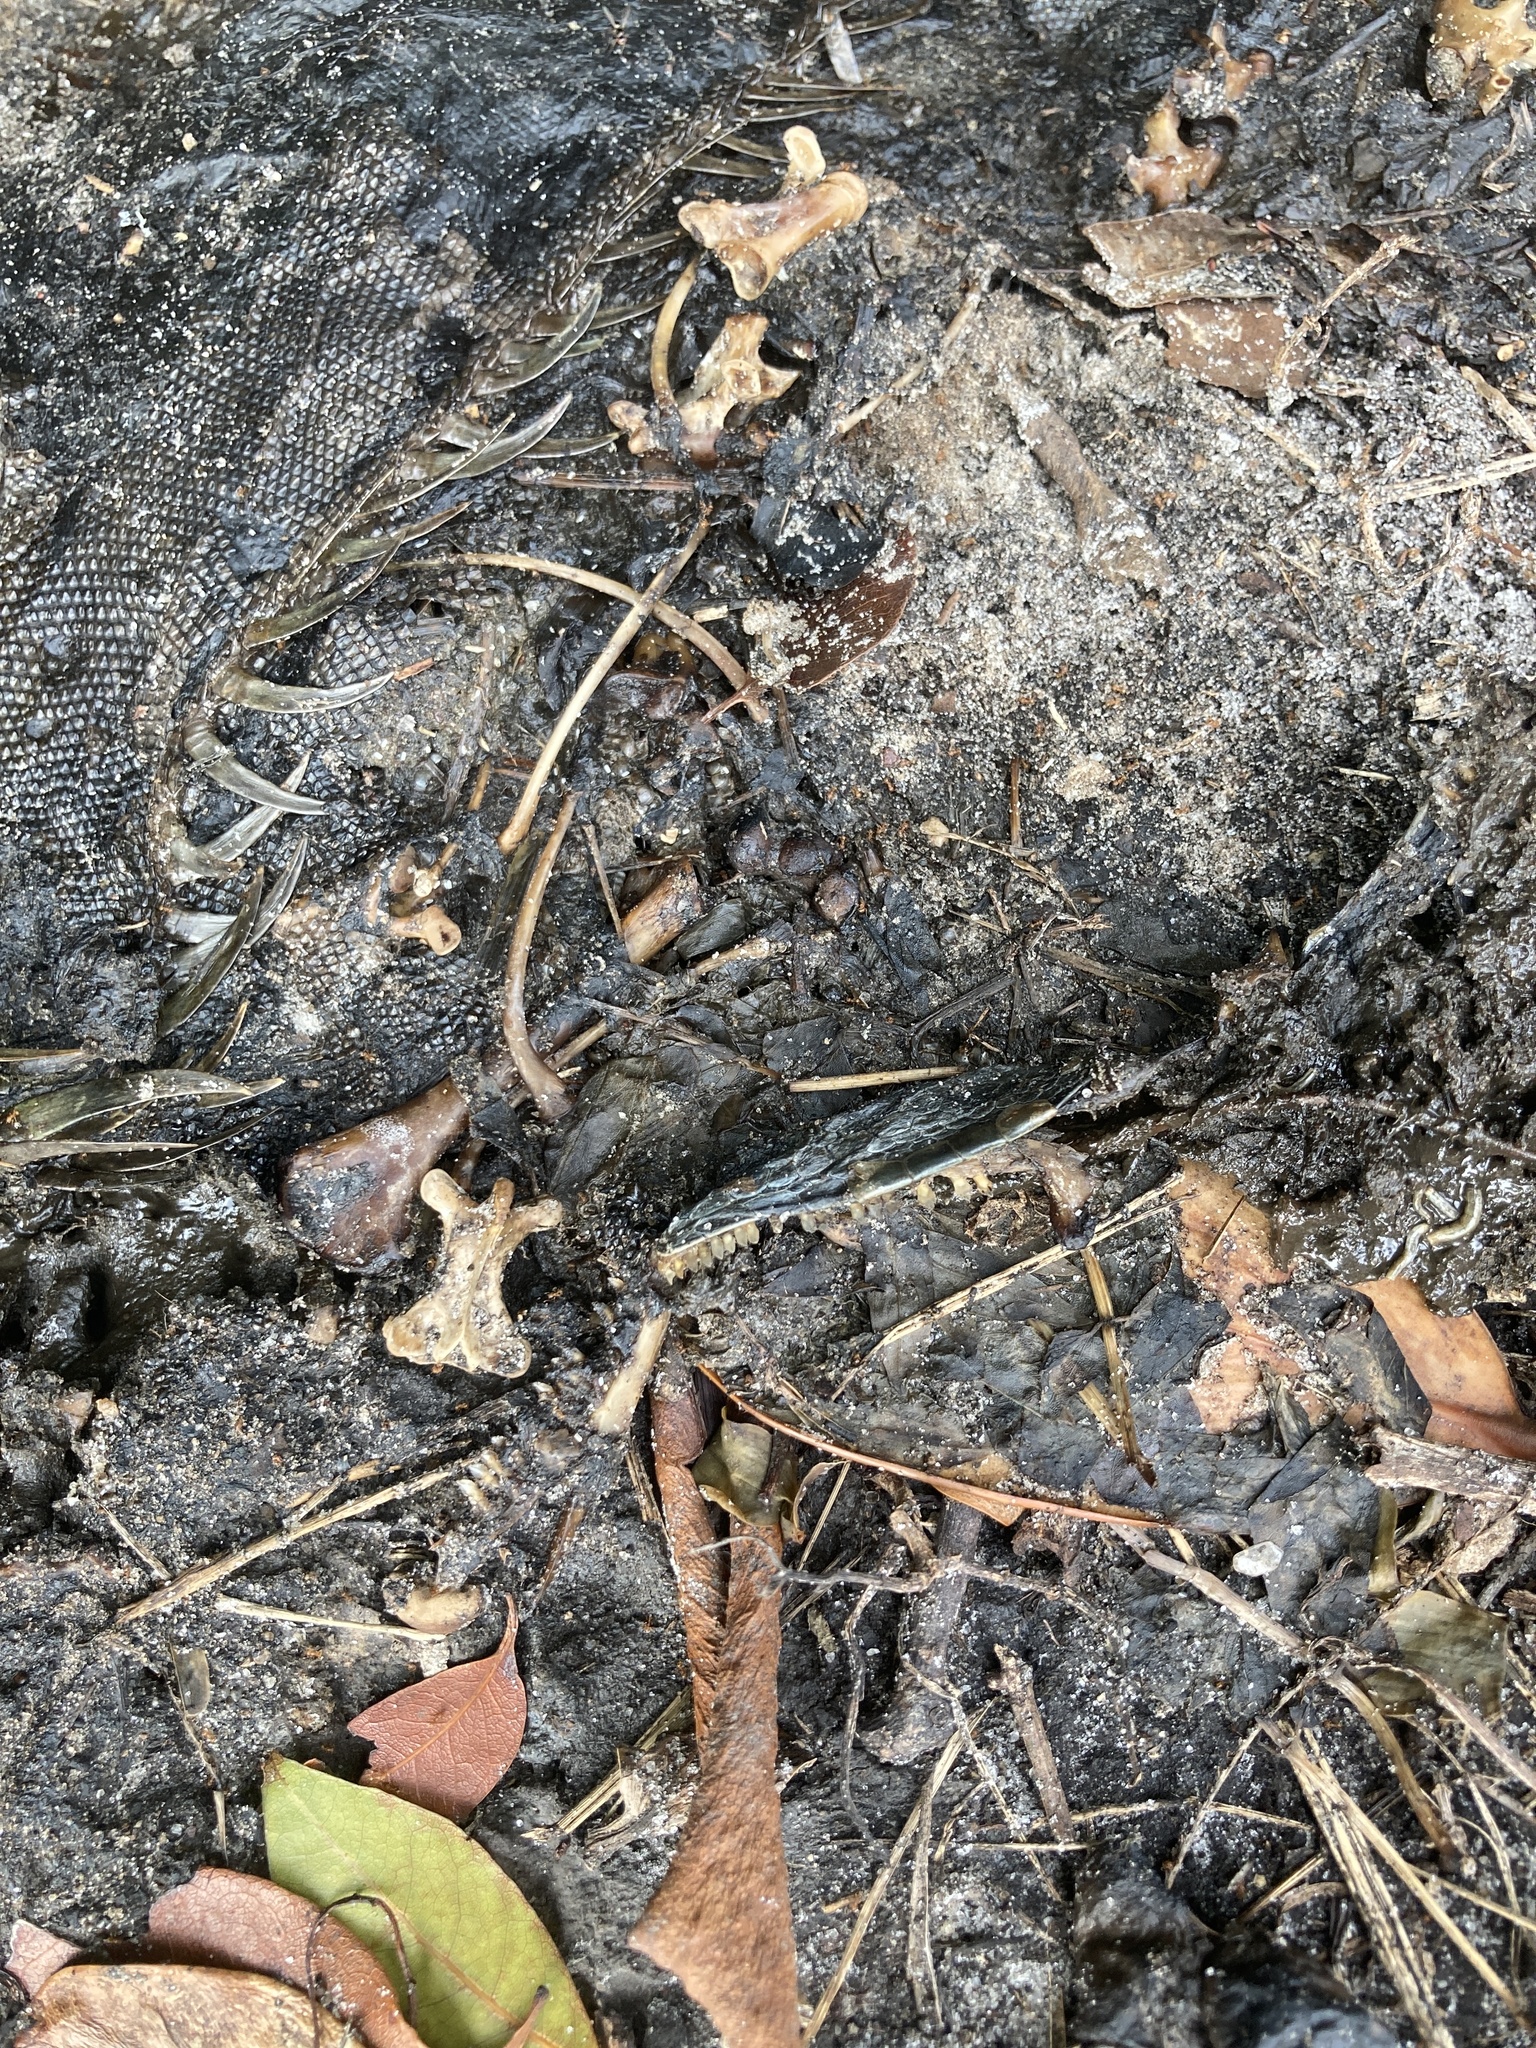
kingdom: Animalia
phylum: Chordata
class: Squamata
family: Iguanidae
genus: Iguana
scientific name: Iguana iguana
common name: Green iguana
